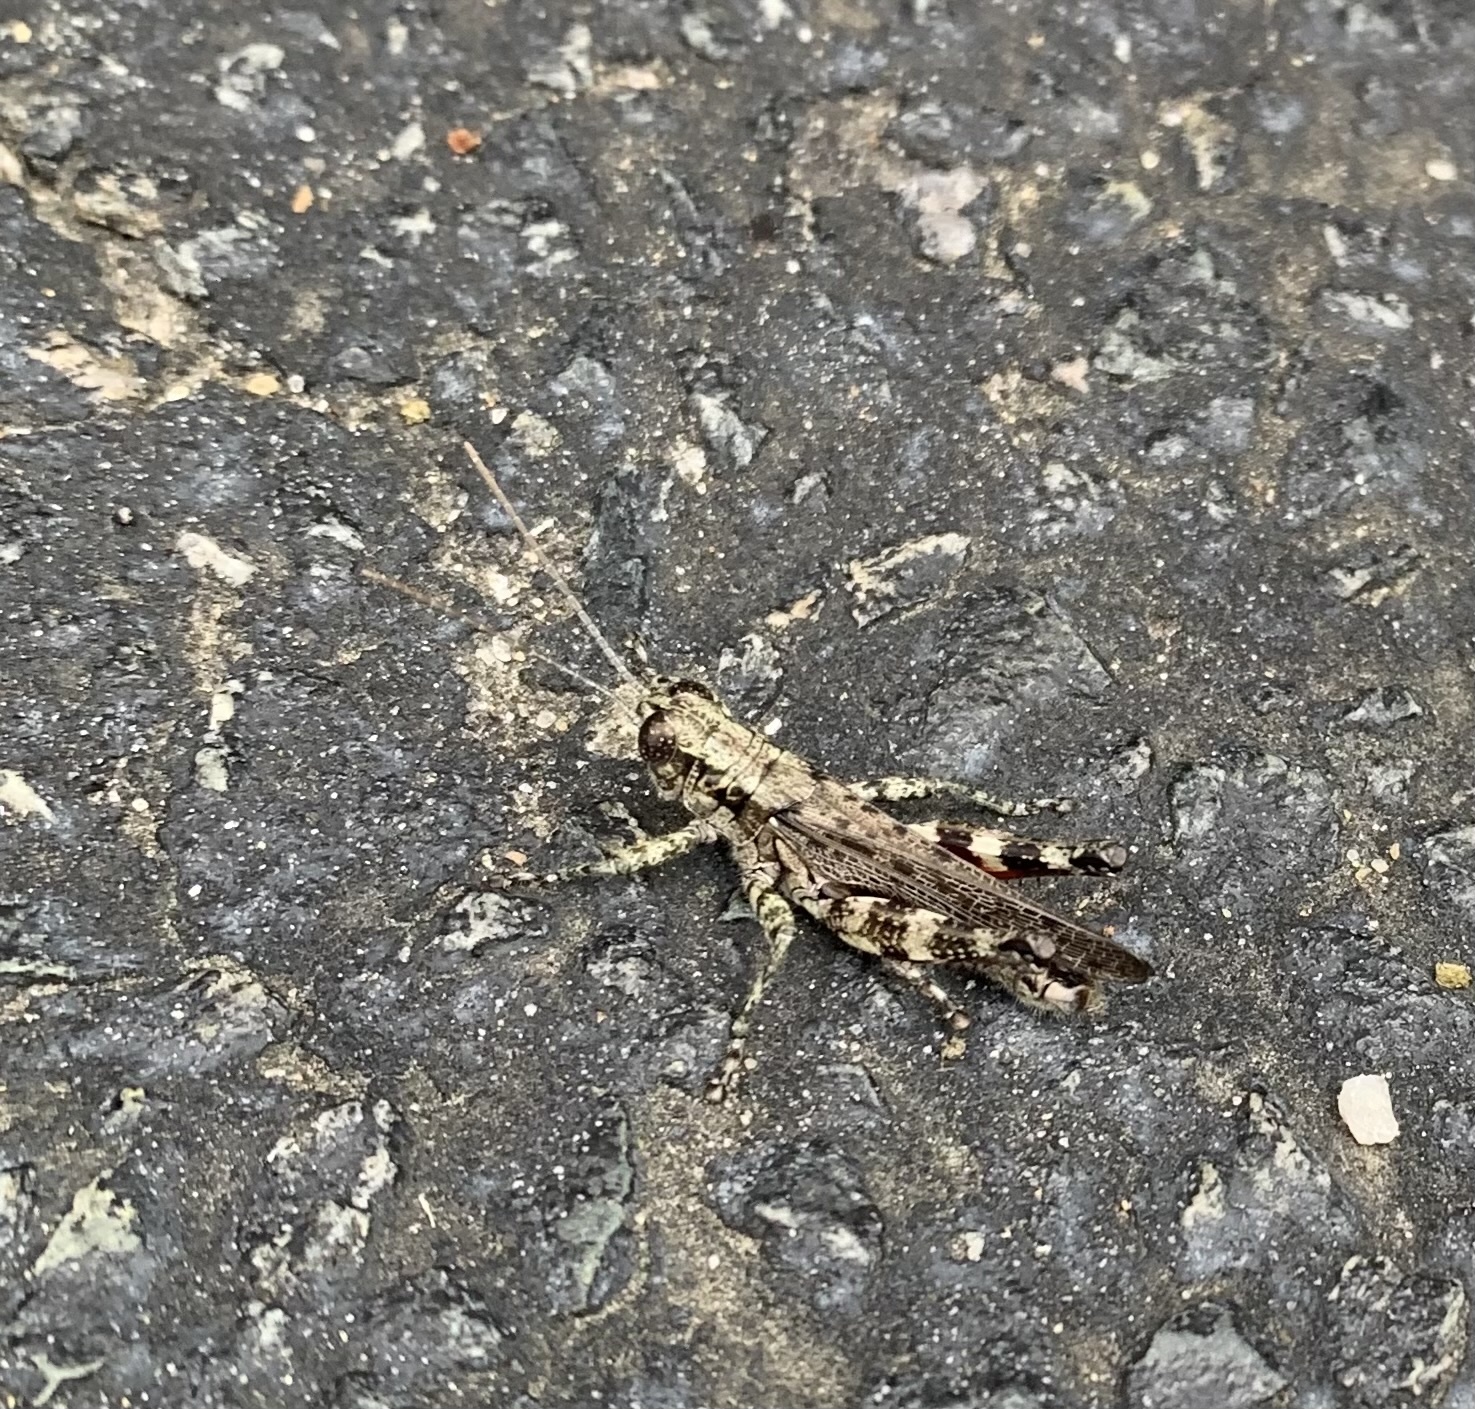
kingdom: Animalia
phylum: Arthropoda
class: Insecta
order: Orthoptera
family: Acrididae
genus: Melanoplus
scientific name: Melanoplus punctulatus
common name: Pine-tree spur-throat grasshopper
